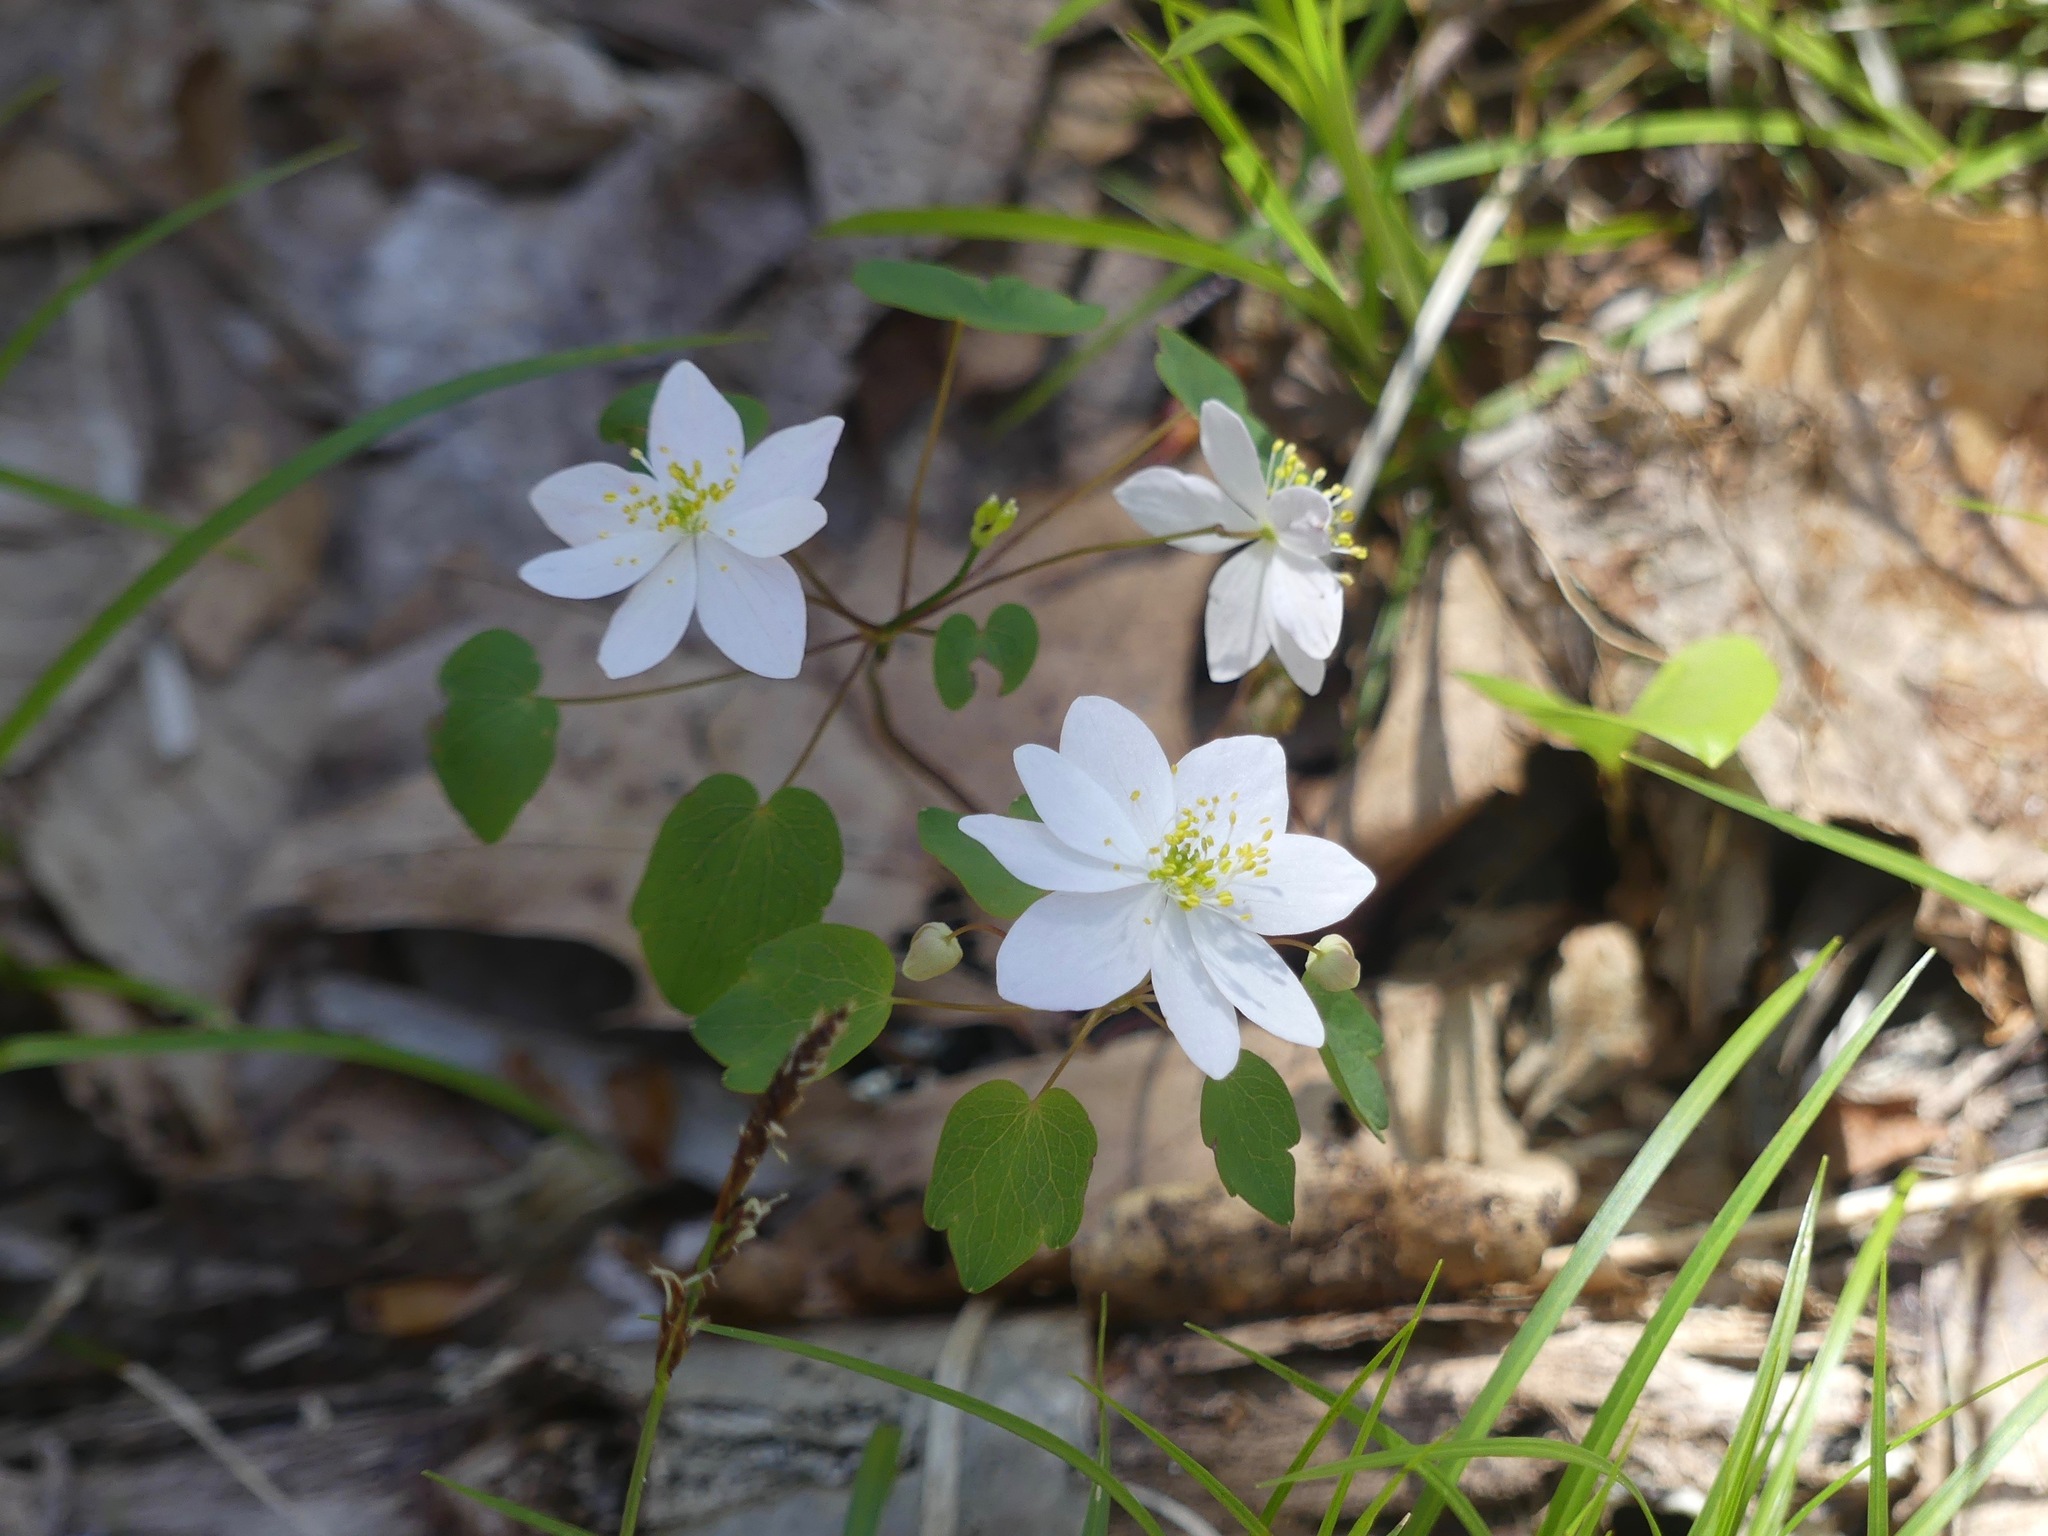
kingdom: Plantae
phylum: Tracheophyta
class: Magnoliopsida
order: Ranunculales
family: Ranunculaceae
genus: Thalictrum
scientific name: Thalictrum thalictroides
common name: Rue-anemone
